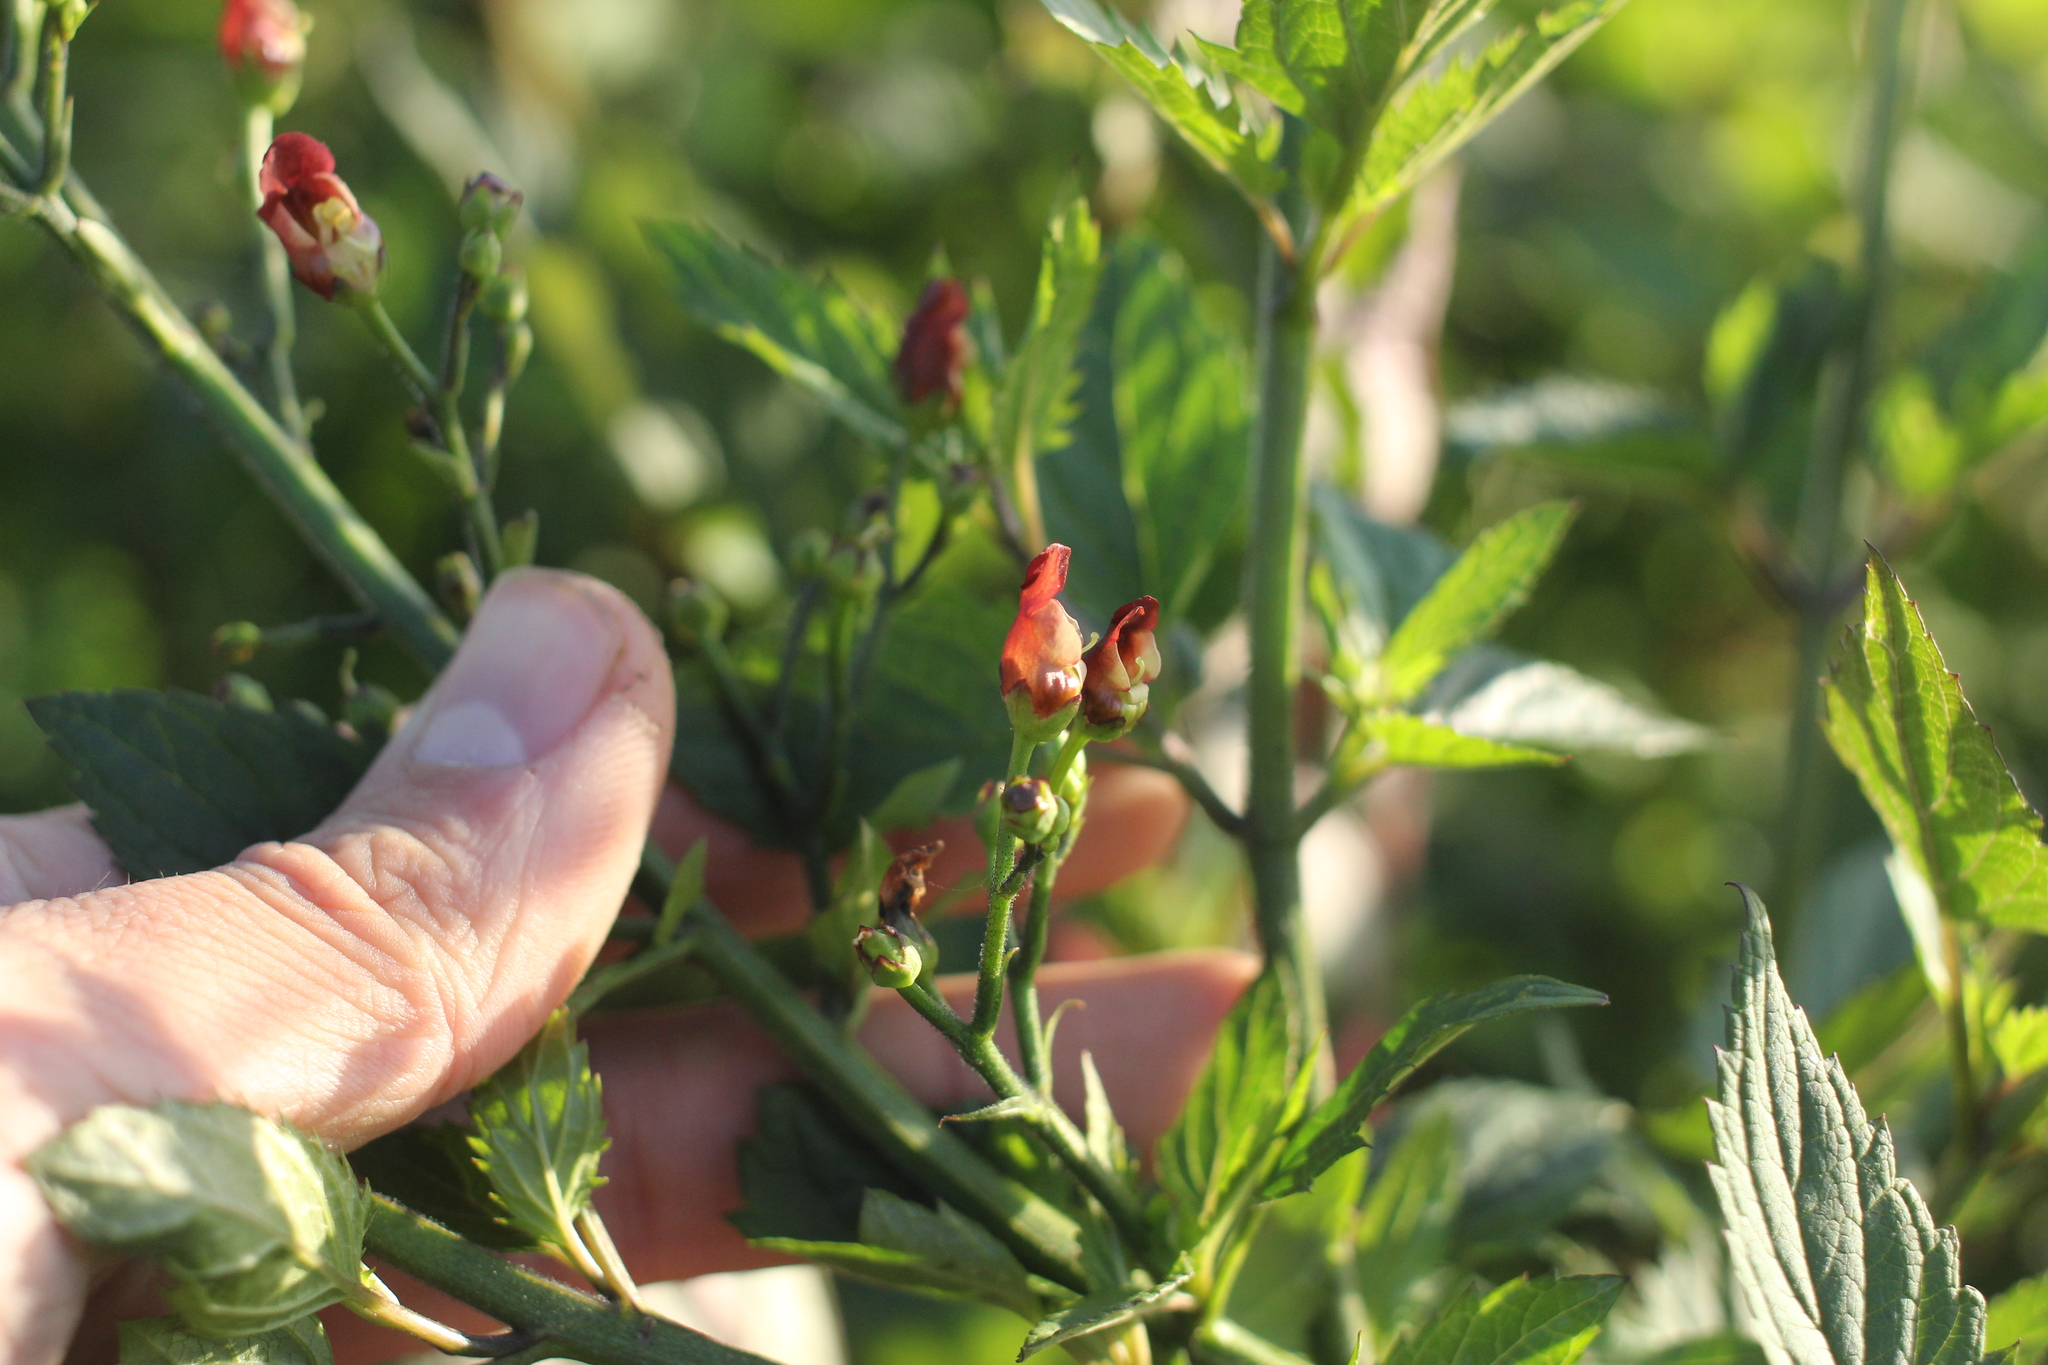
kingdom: Plantae
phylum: Tracheophyta
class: Magnoliopsida
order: Lamiales
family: Scrophulariaceae
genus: Scrophularia
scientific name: Scrophularia californica
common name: California figwort
